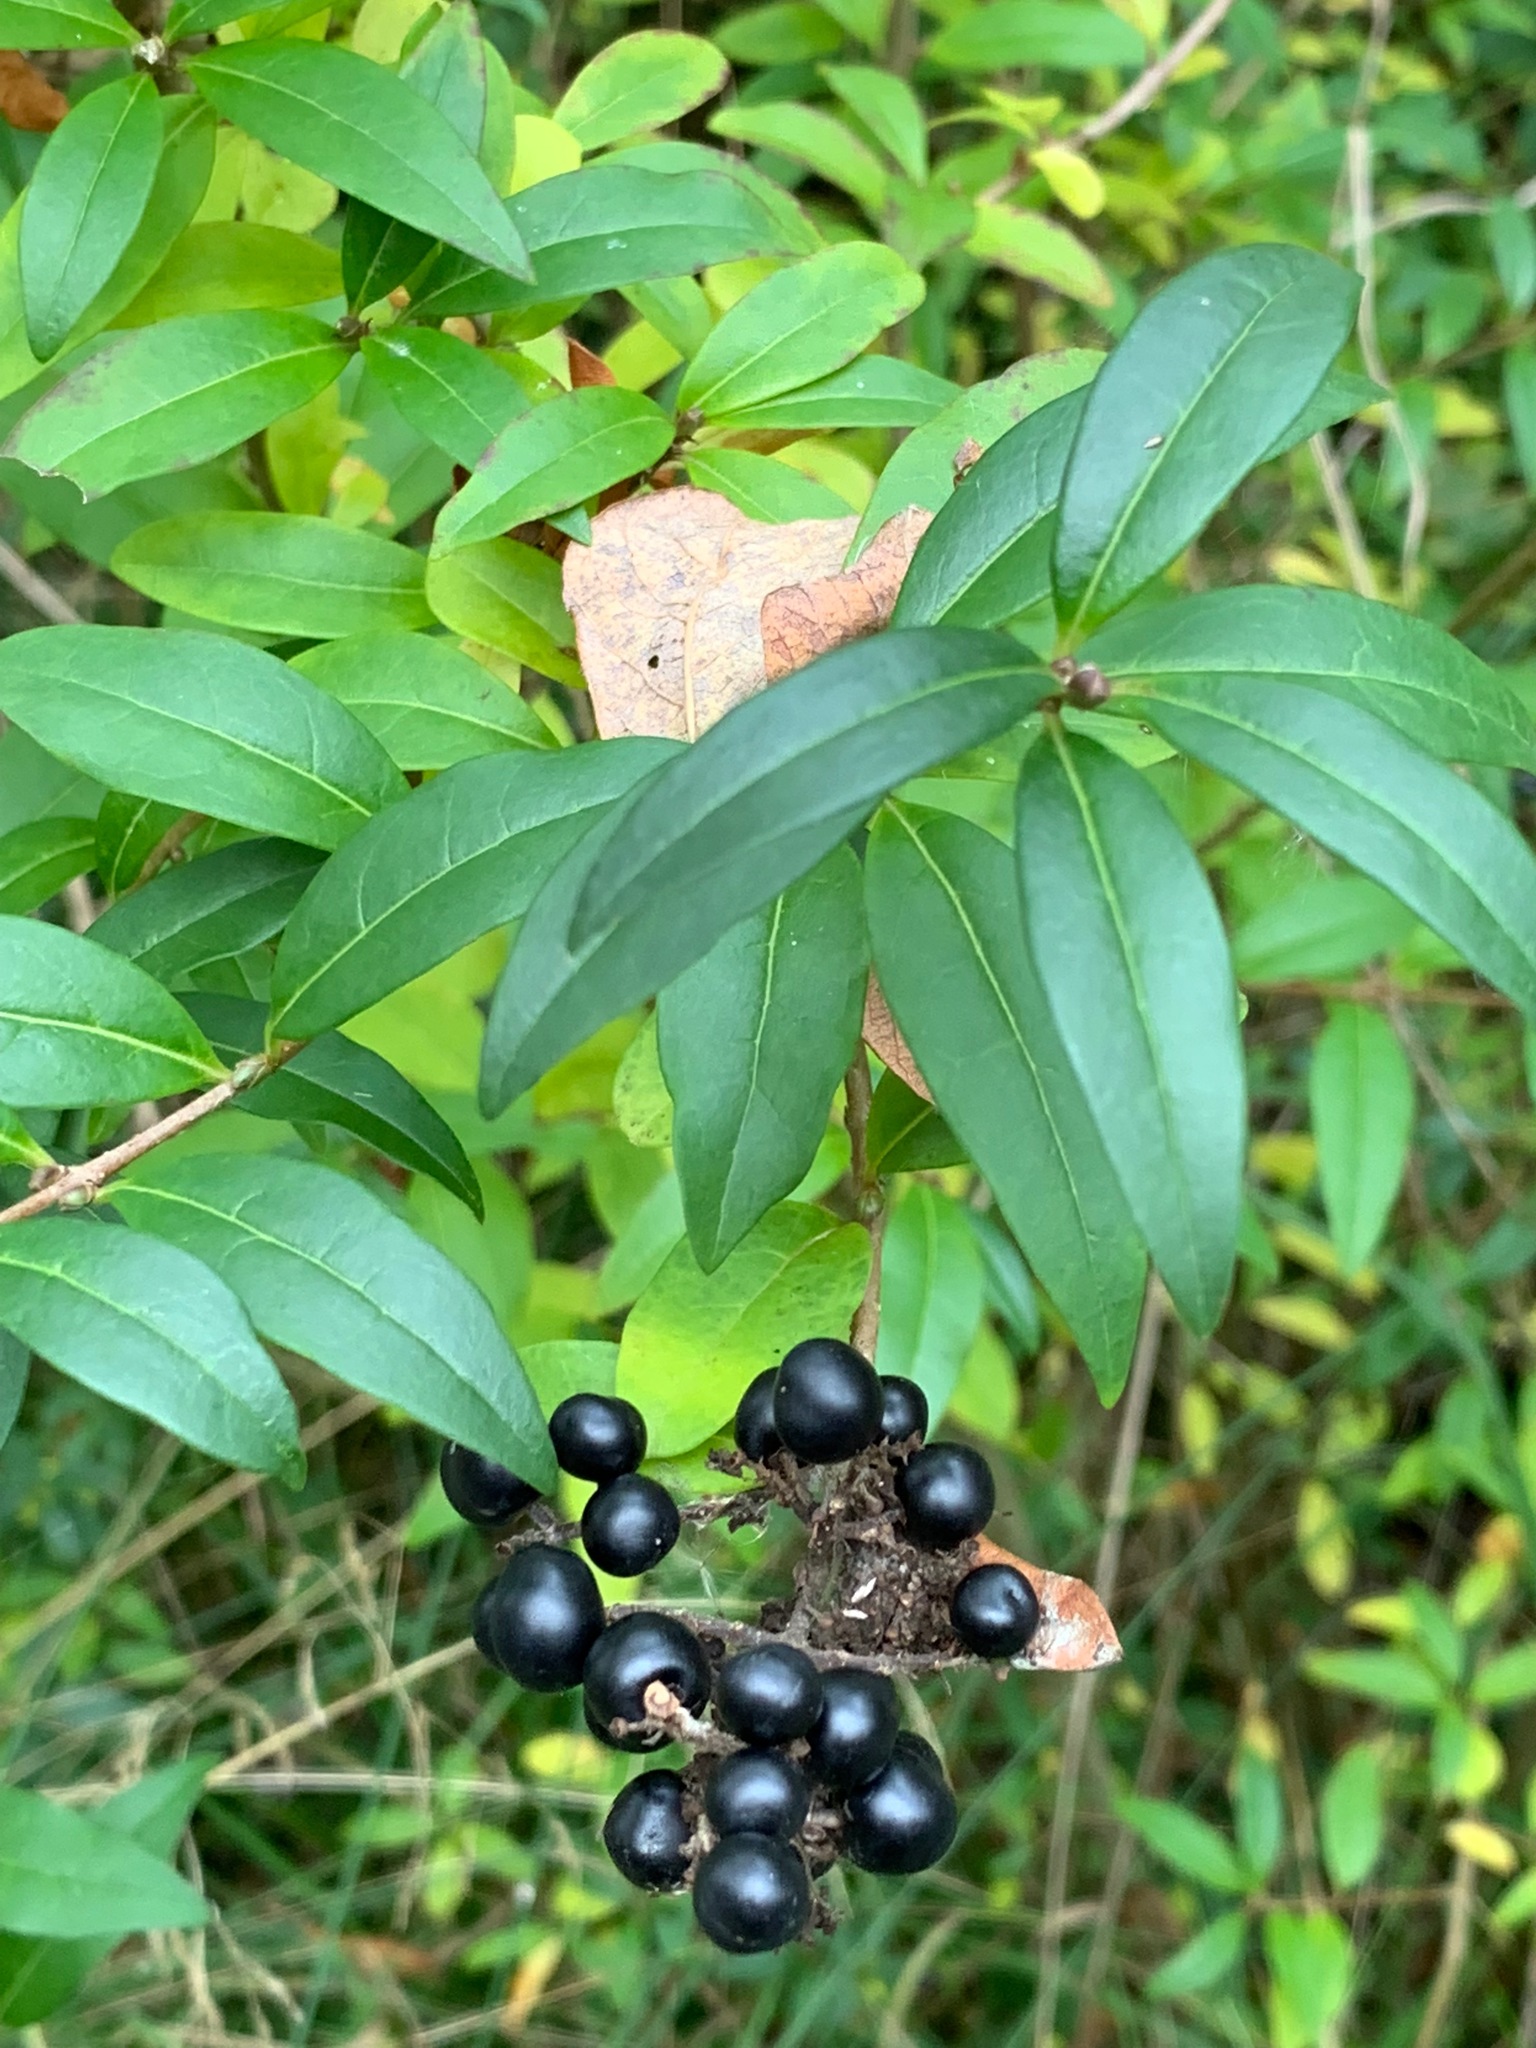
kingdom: Plantae
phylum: Tracheophyta
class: Magnoliopsida
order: Lamiales
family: Oleaceae
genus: Ligustrum
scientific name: Ligustrum vulgare
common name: Wild privet
